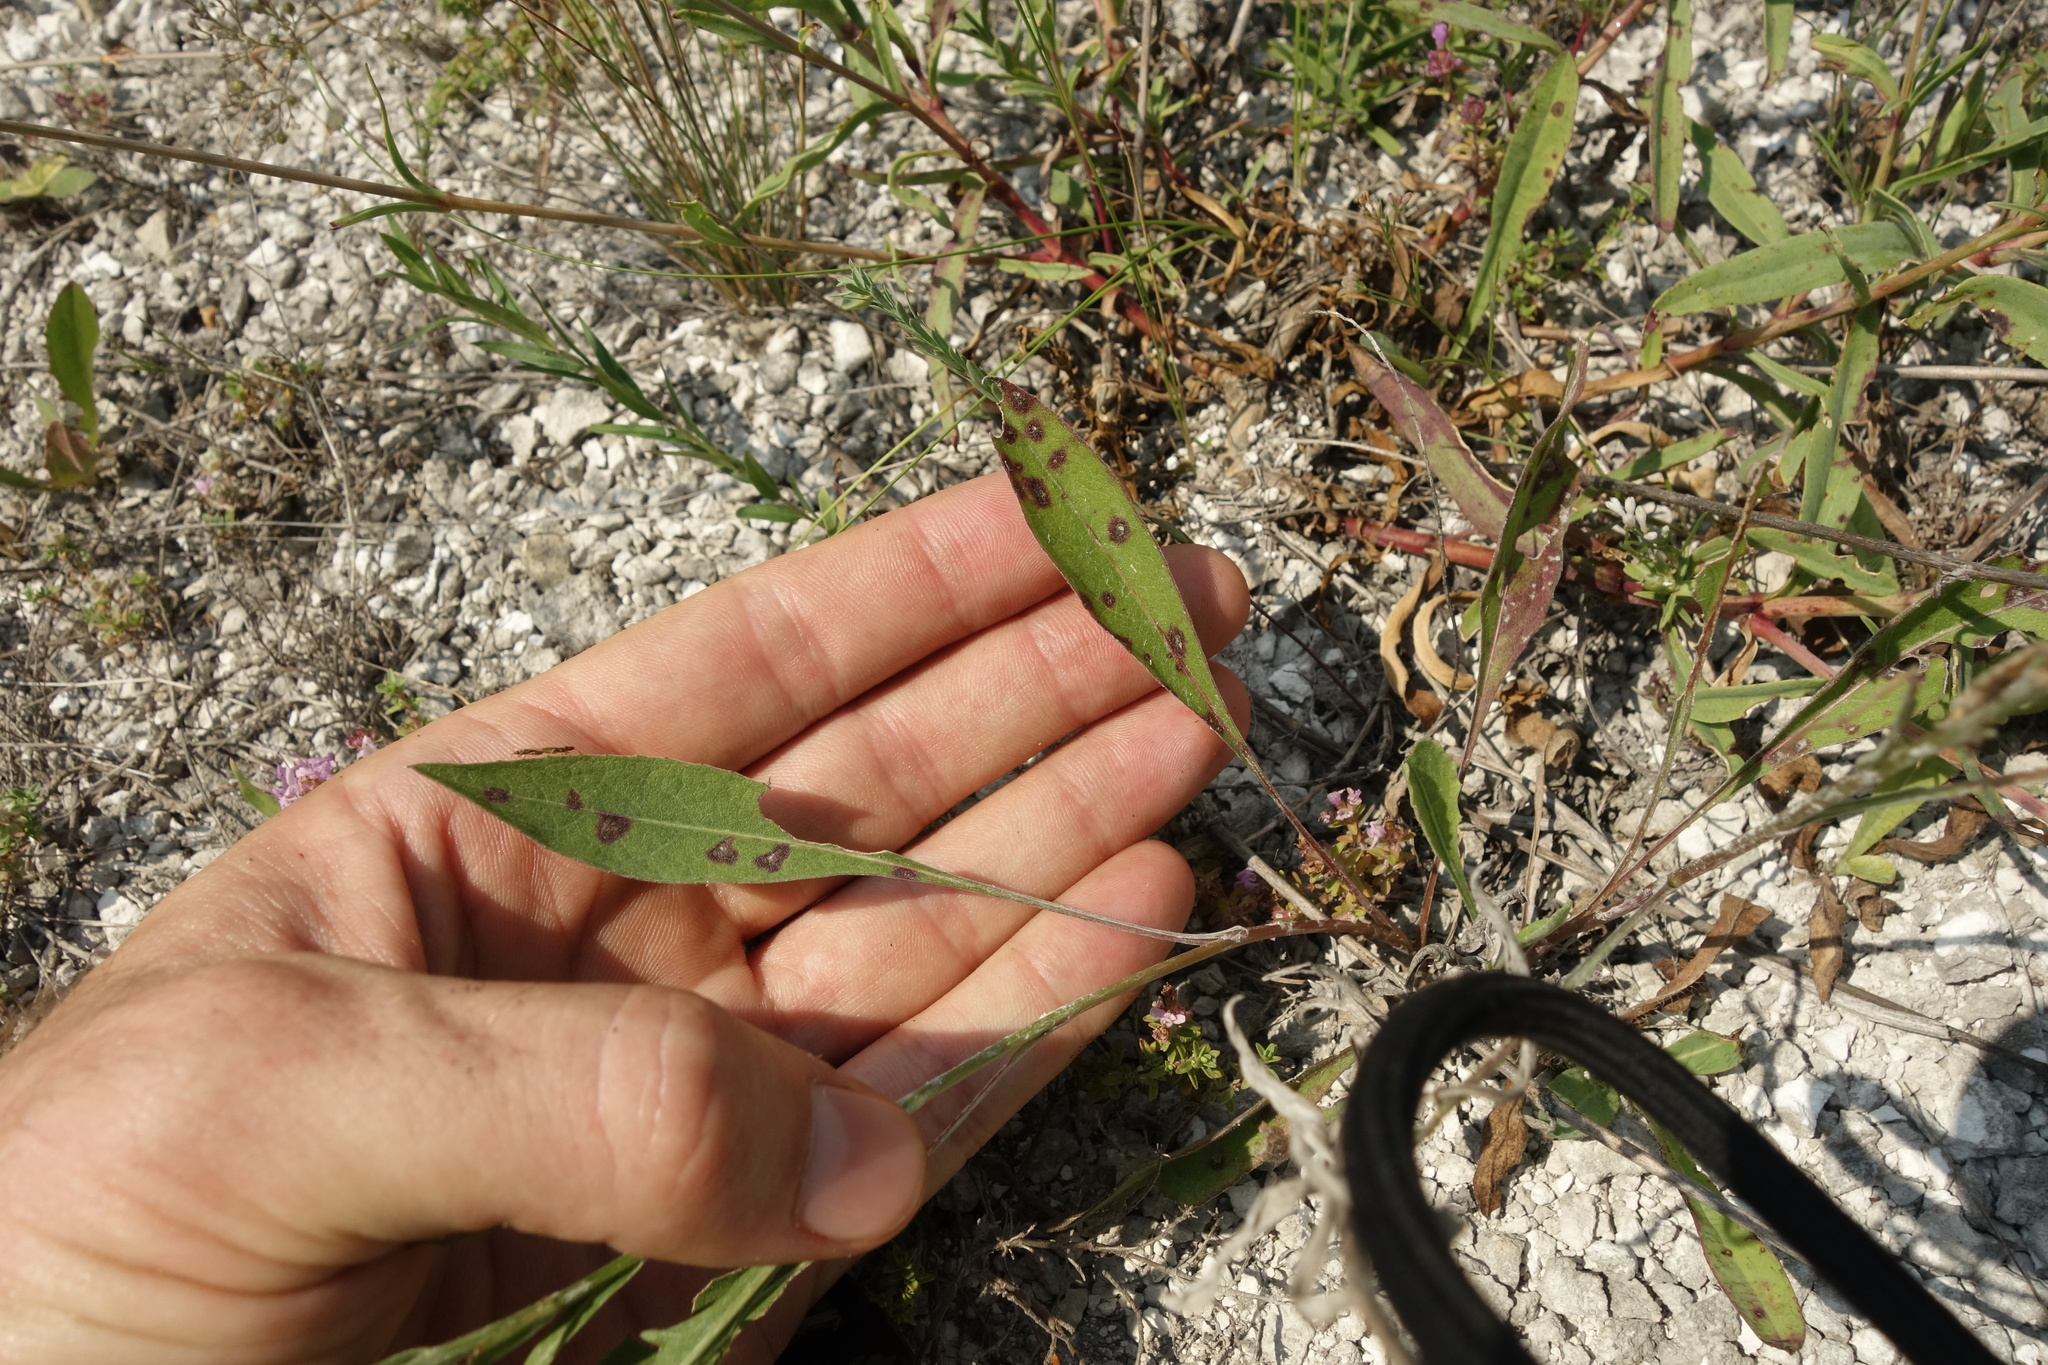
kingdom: Plantae
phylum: Tracheophyta
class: Magnoliopsida
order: Asterales
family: Asteraceae
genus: Centaurea
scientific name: Centaurea jacea
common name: Brown knapweed
